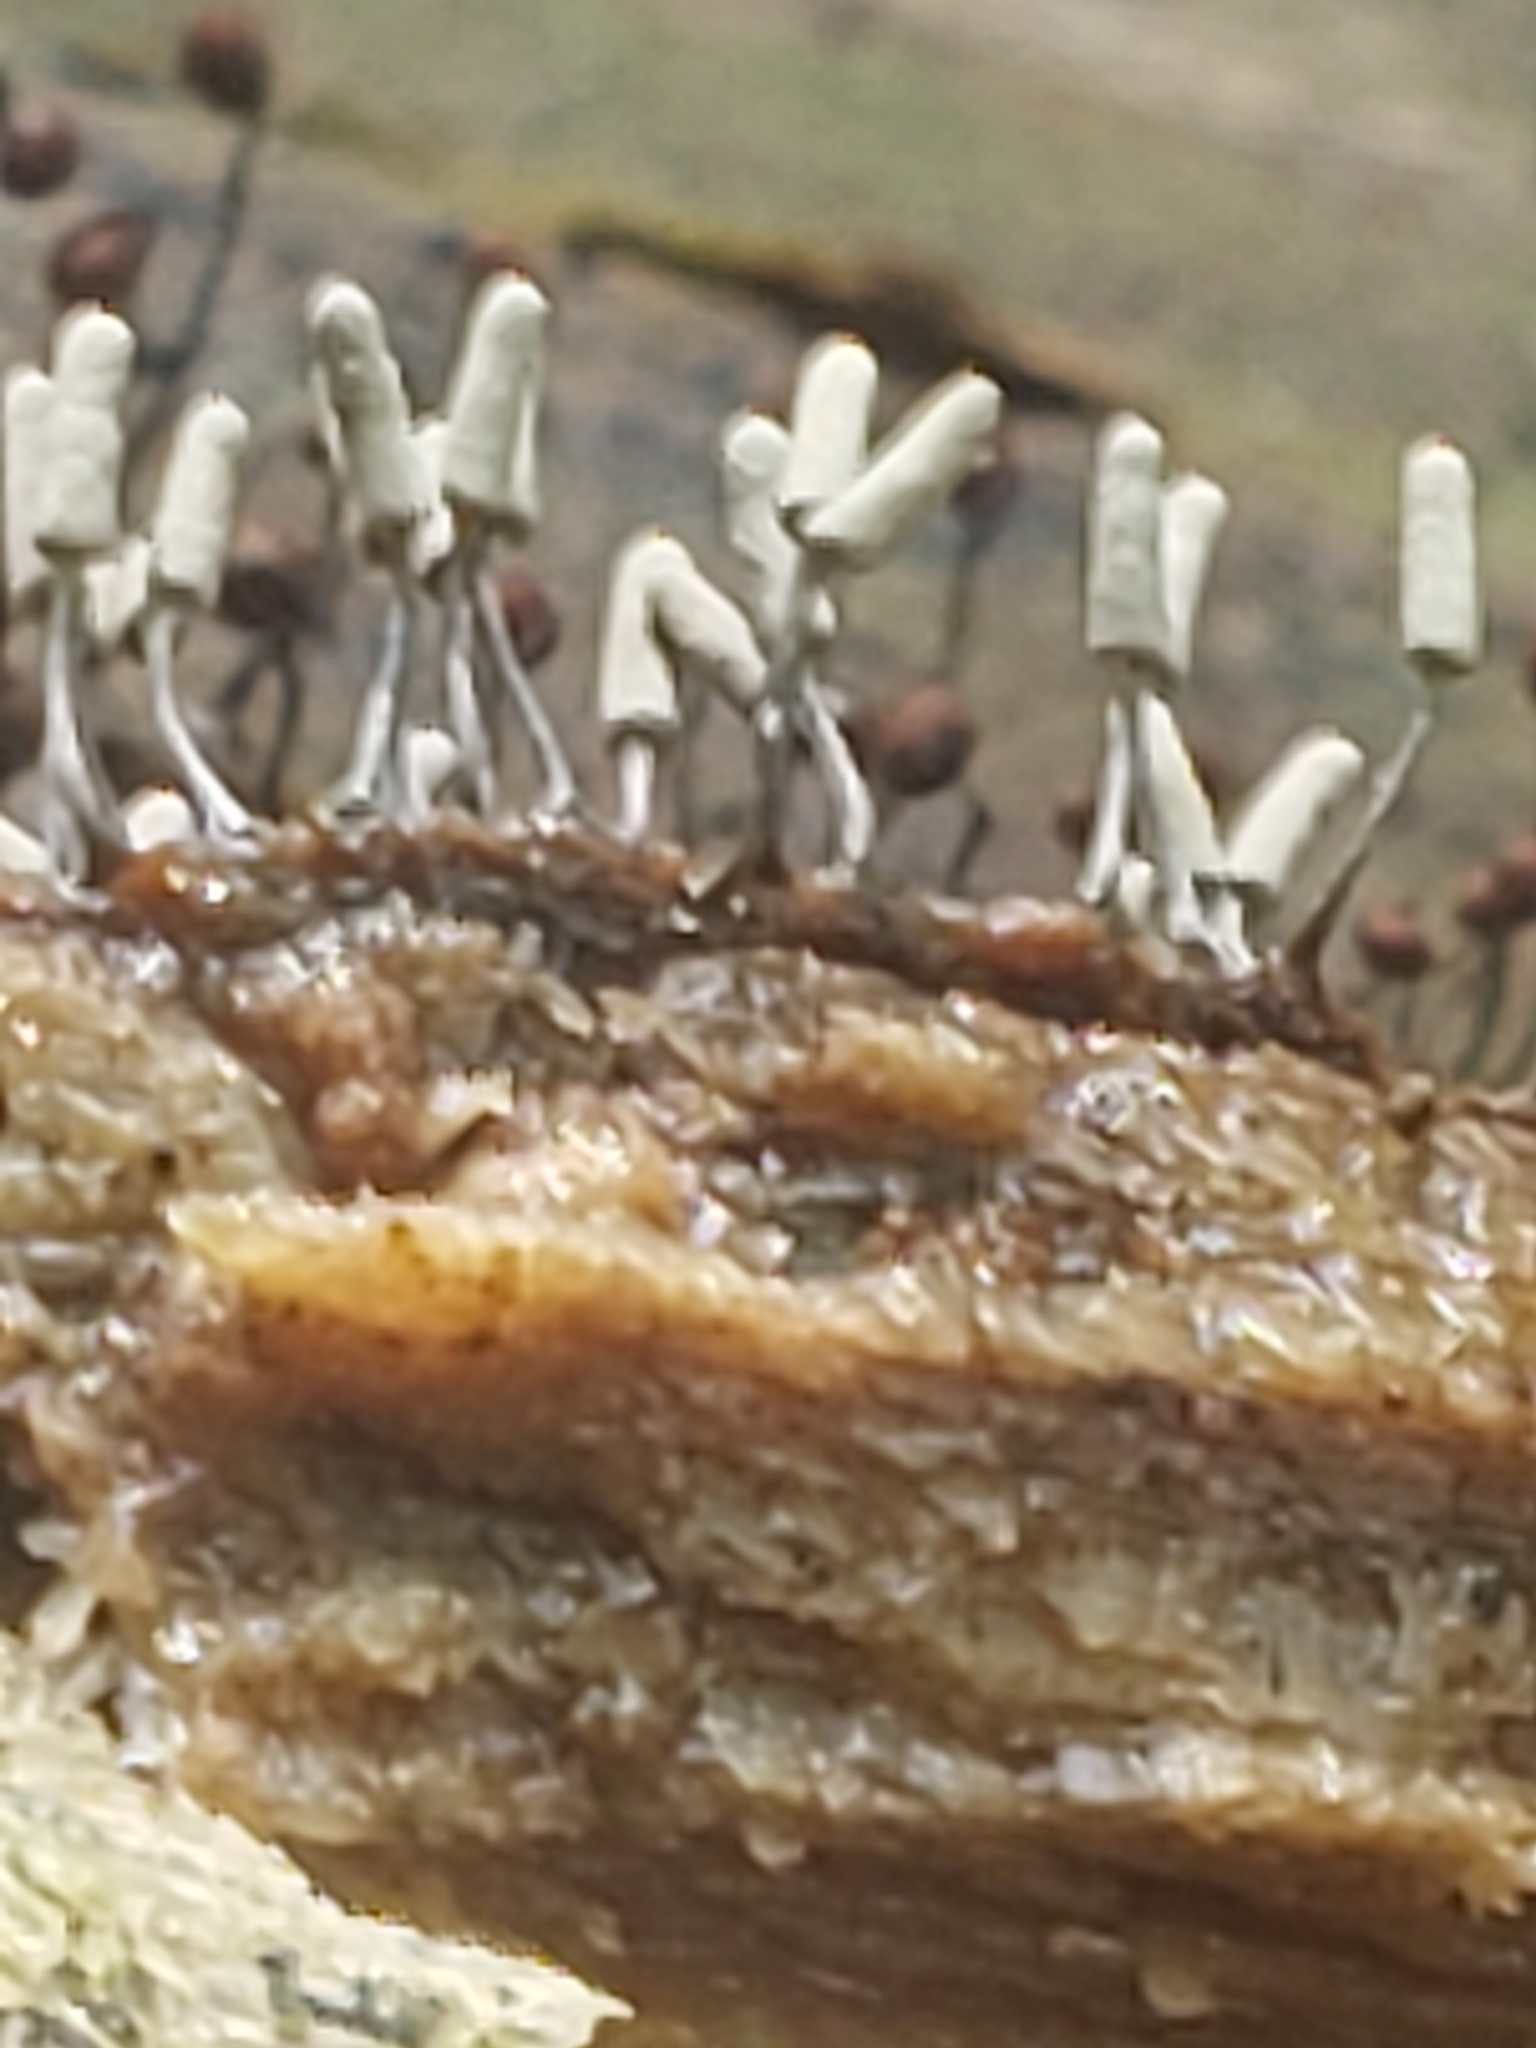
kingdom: Protozoa
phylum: Mycetozoa
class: Myxomycetes
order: Trichiales
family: Arcyriaceae
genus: Arcyria
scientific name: Arcyria cinerea
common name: White carnival candy slime mold
